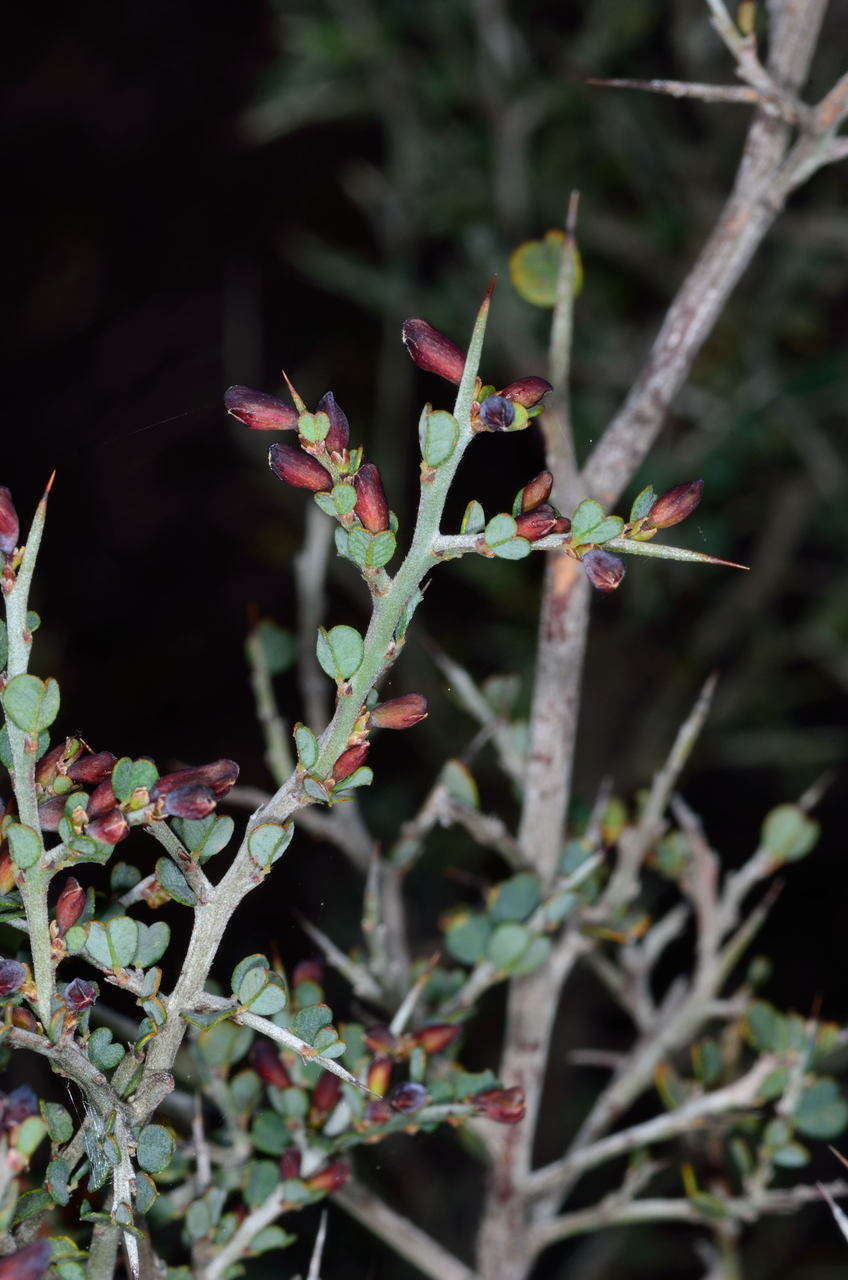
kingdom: Plantae
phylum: Tracheophyta
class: Magnoliopsida
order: Fabales
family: Fabaceae
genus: Bossiaea
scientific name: Bossiaea obcordata
